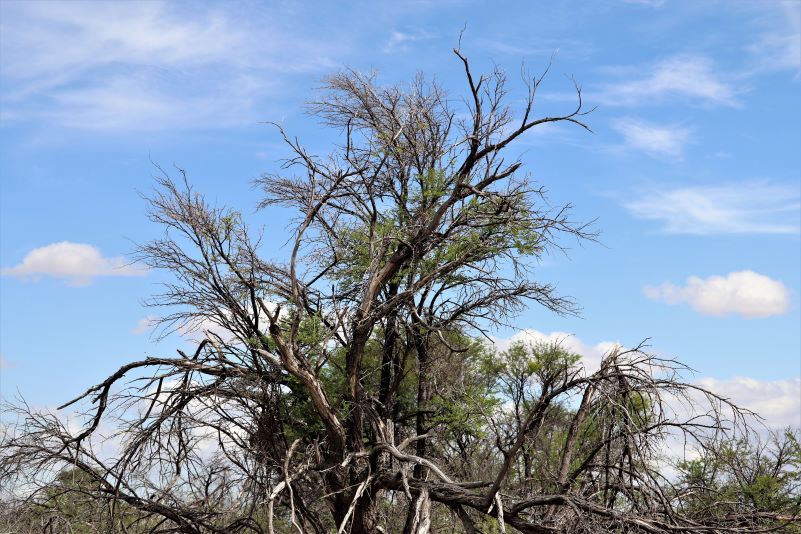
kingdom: Plantae
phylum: Tracheophyta
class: Magnoliopsida
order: Fabales
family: Fabaceae
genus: Vachellia
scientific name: Vachellia karroo
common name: Sweet thorn
